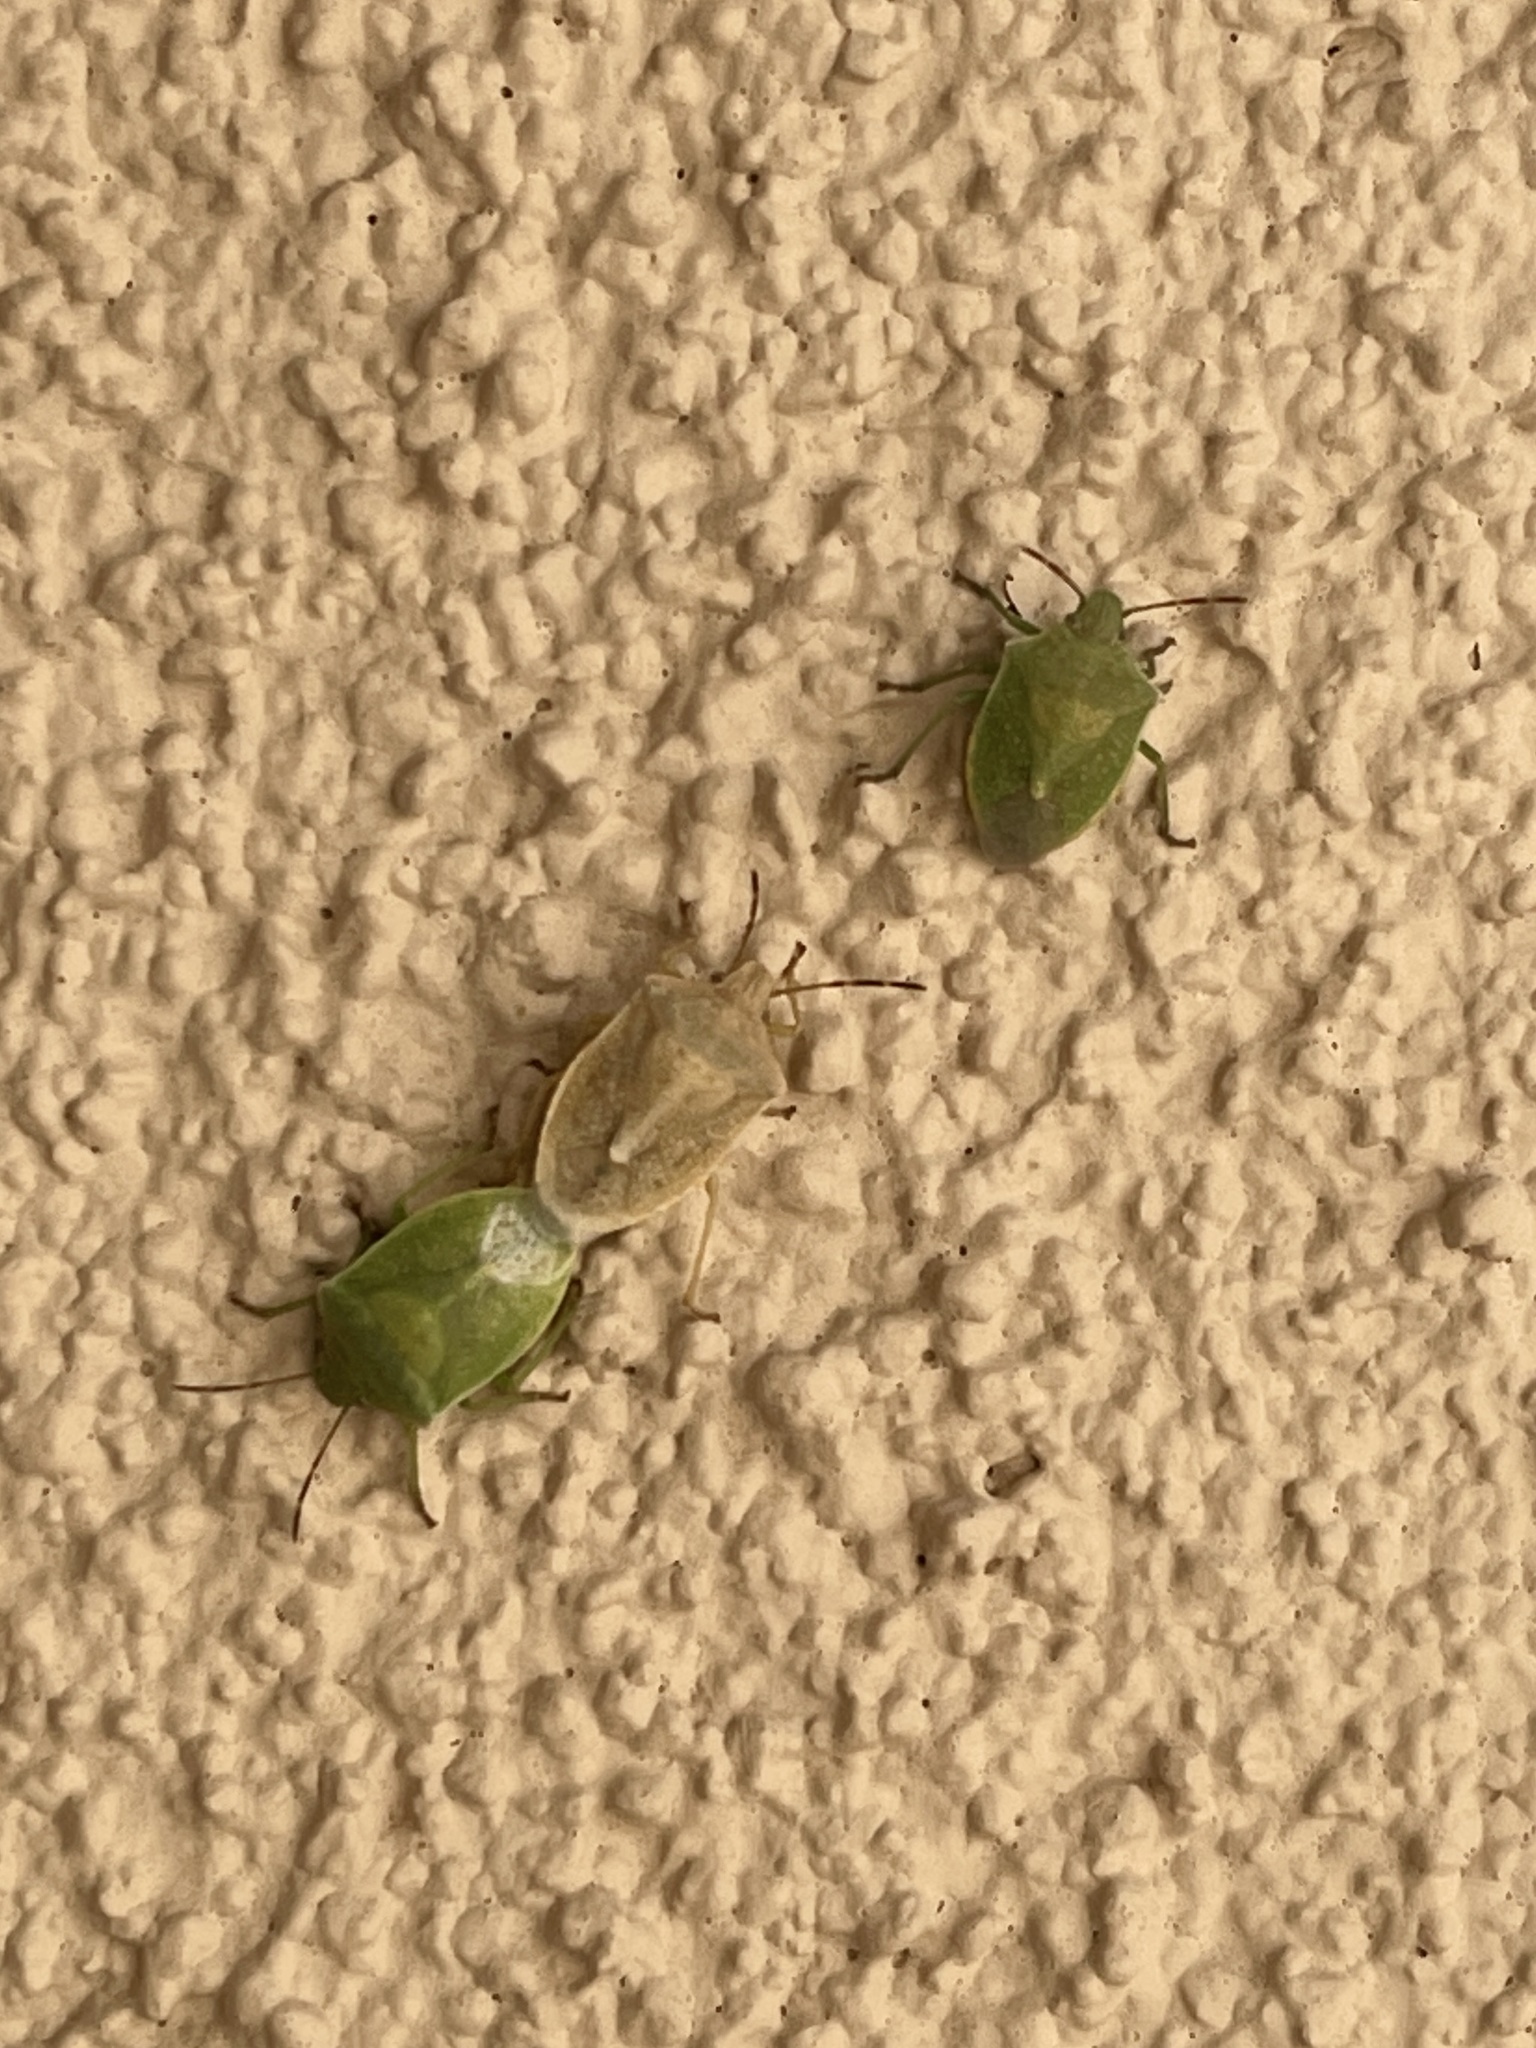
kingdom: Animalia
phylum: Arthropoda
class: Insecta
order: Hemiptera
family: Pentatomidae
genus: Thyanta
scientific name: Thyanta accerra
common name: Stink bug
